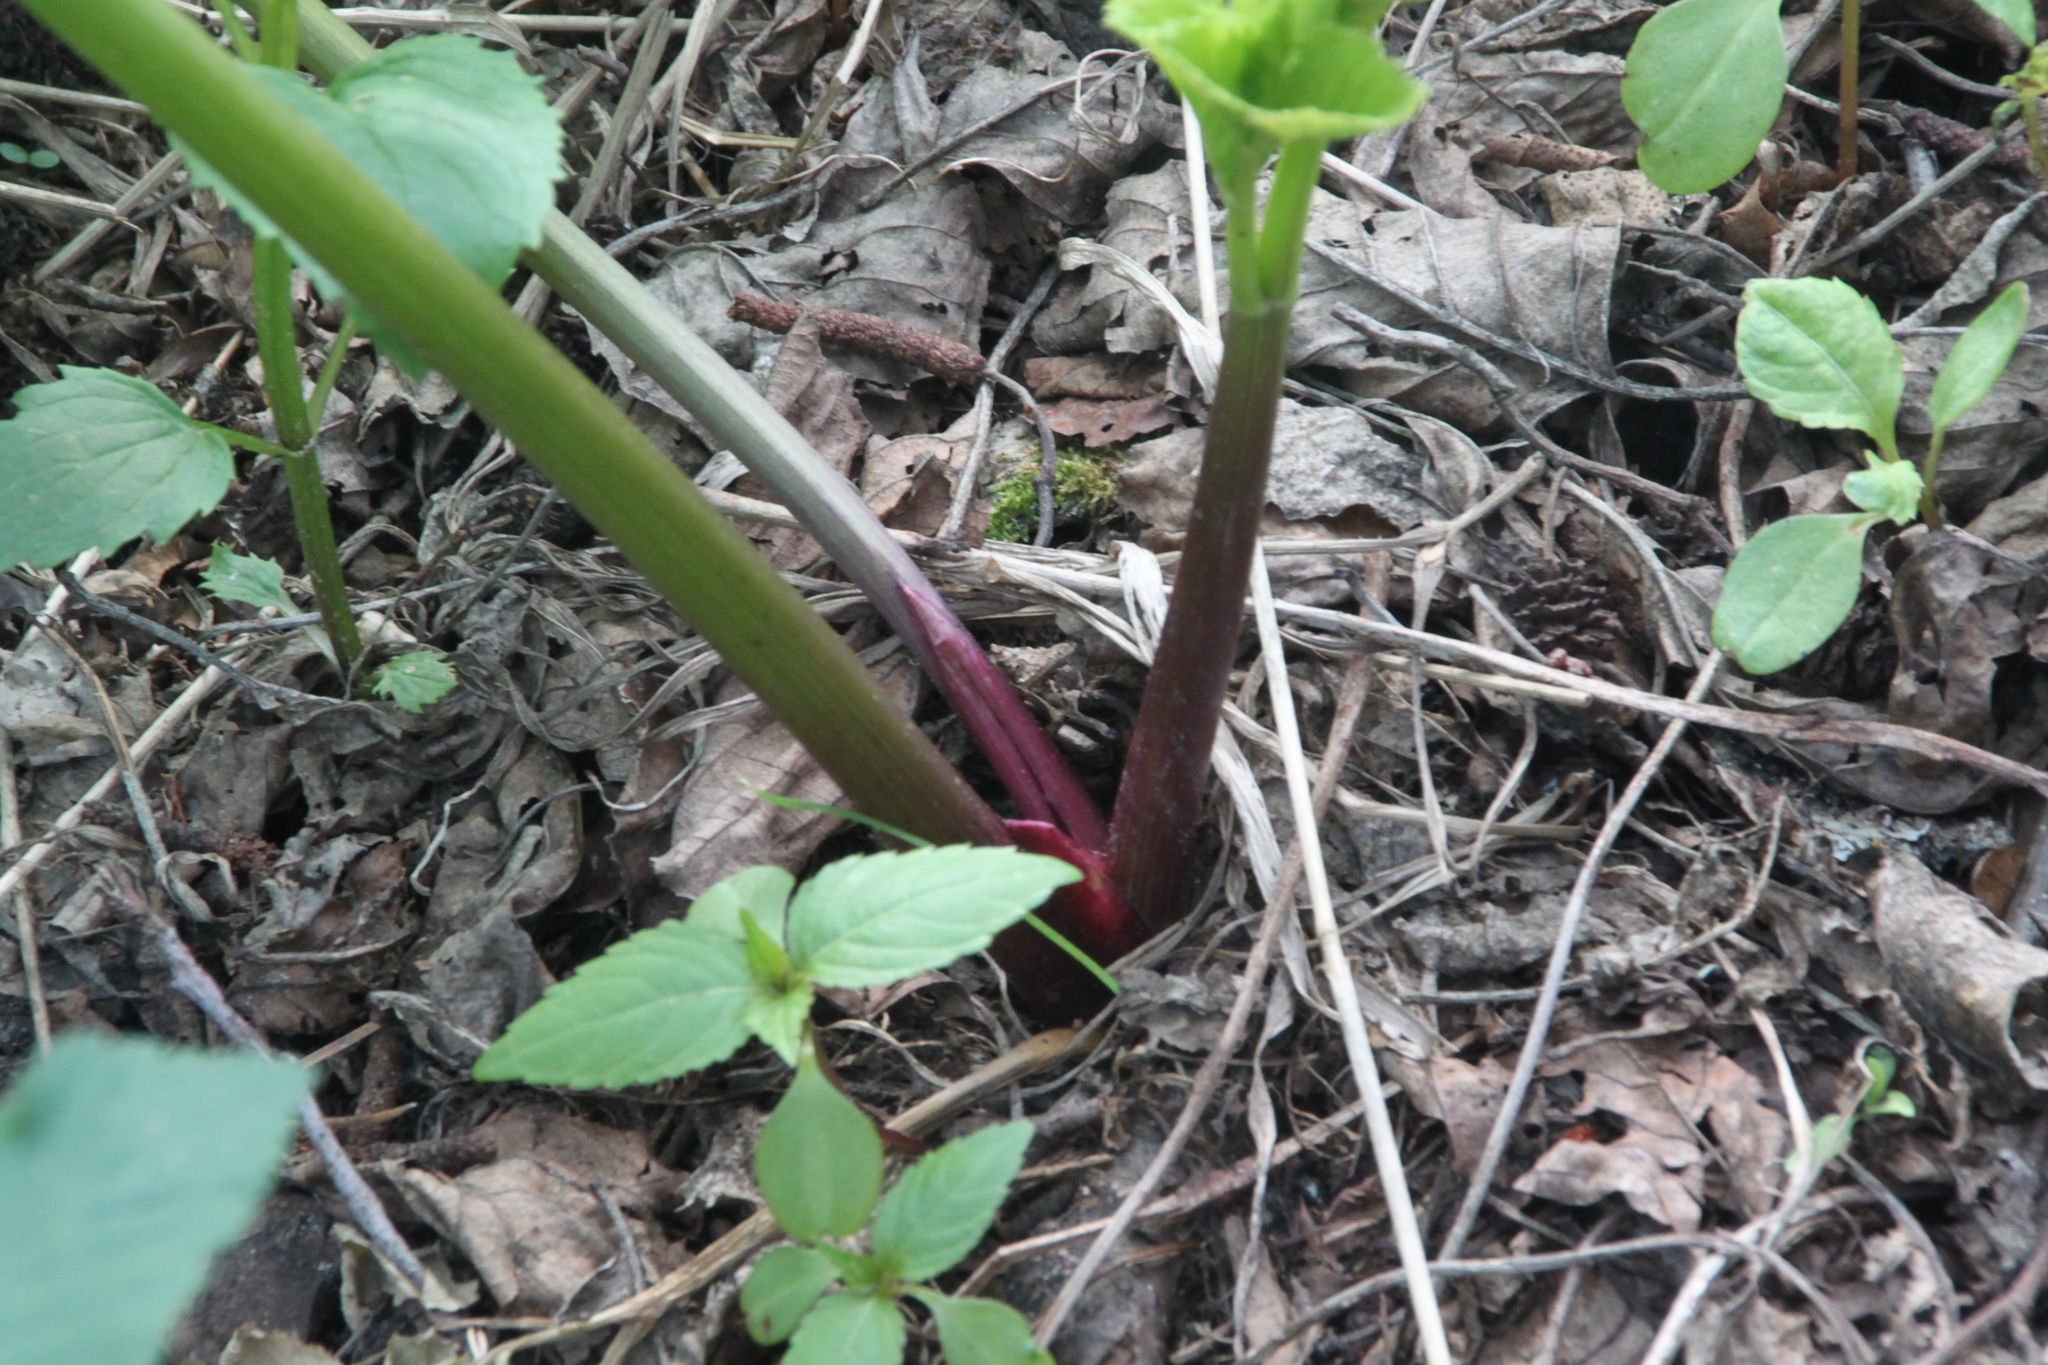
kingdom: Plantae
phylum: Tracheophyta
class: Magnoliopsida
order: Apiales
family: Apiaceae
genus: Angelica
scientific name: Angelica archangelica
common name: Garden angelica
